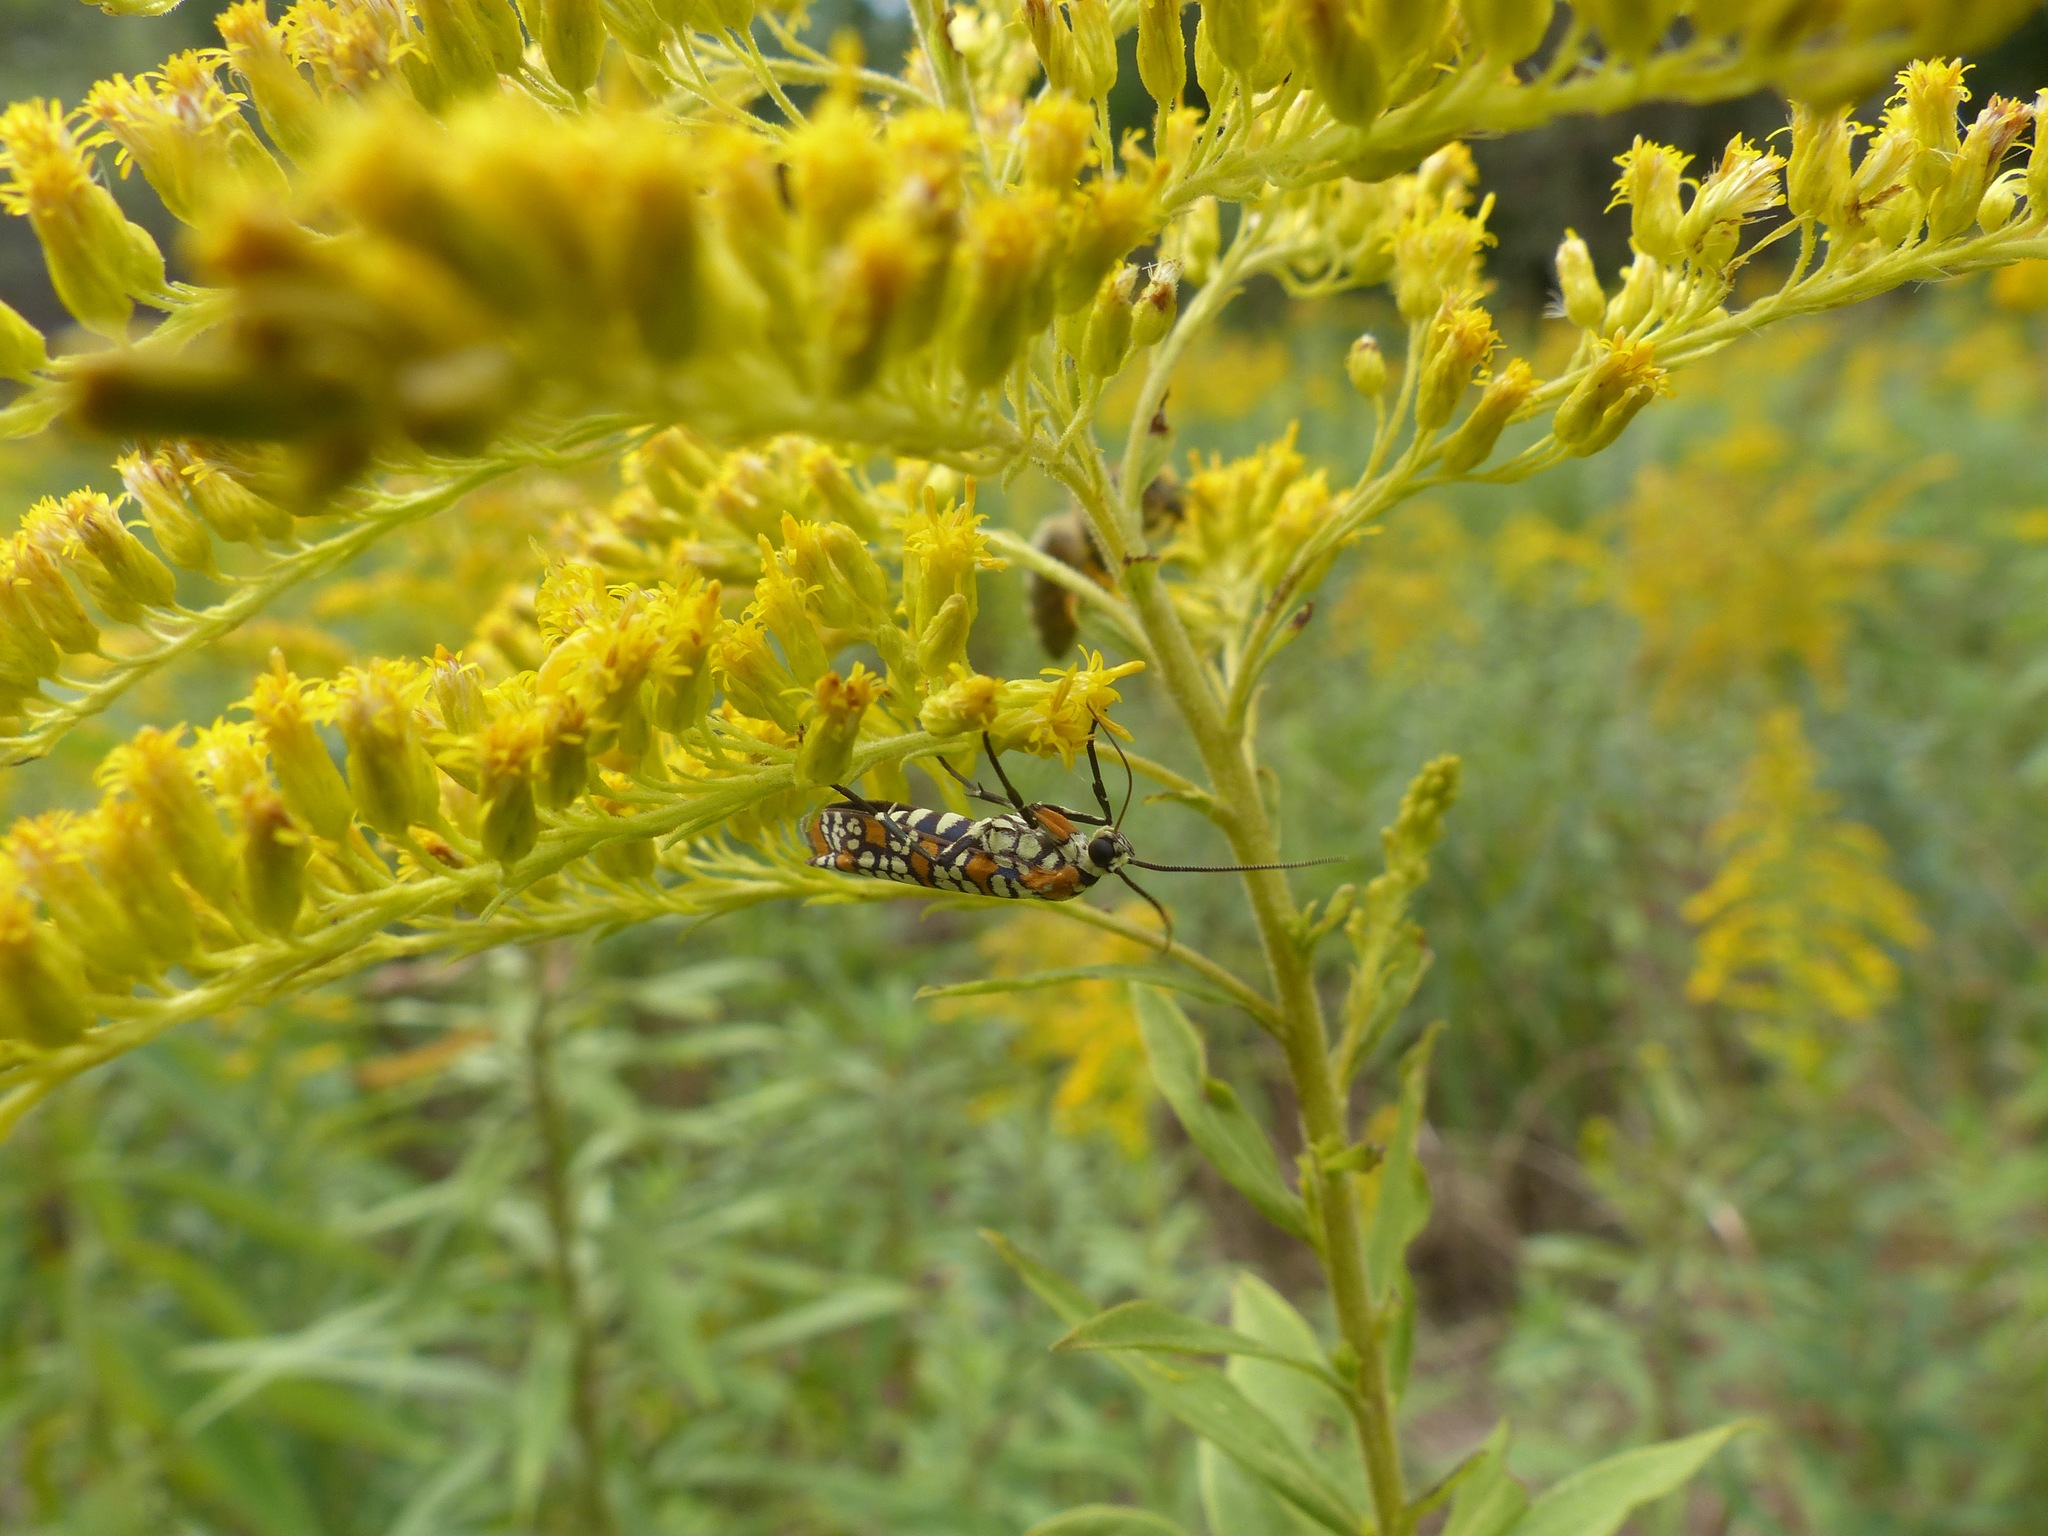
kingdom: Animalia
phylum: Arthropoda
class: Insecta
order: Lepidoptera
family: Attevidae
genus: Atteva
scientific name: Atteva punctella
